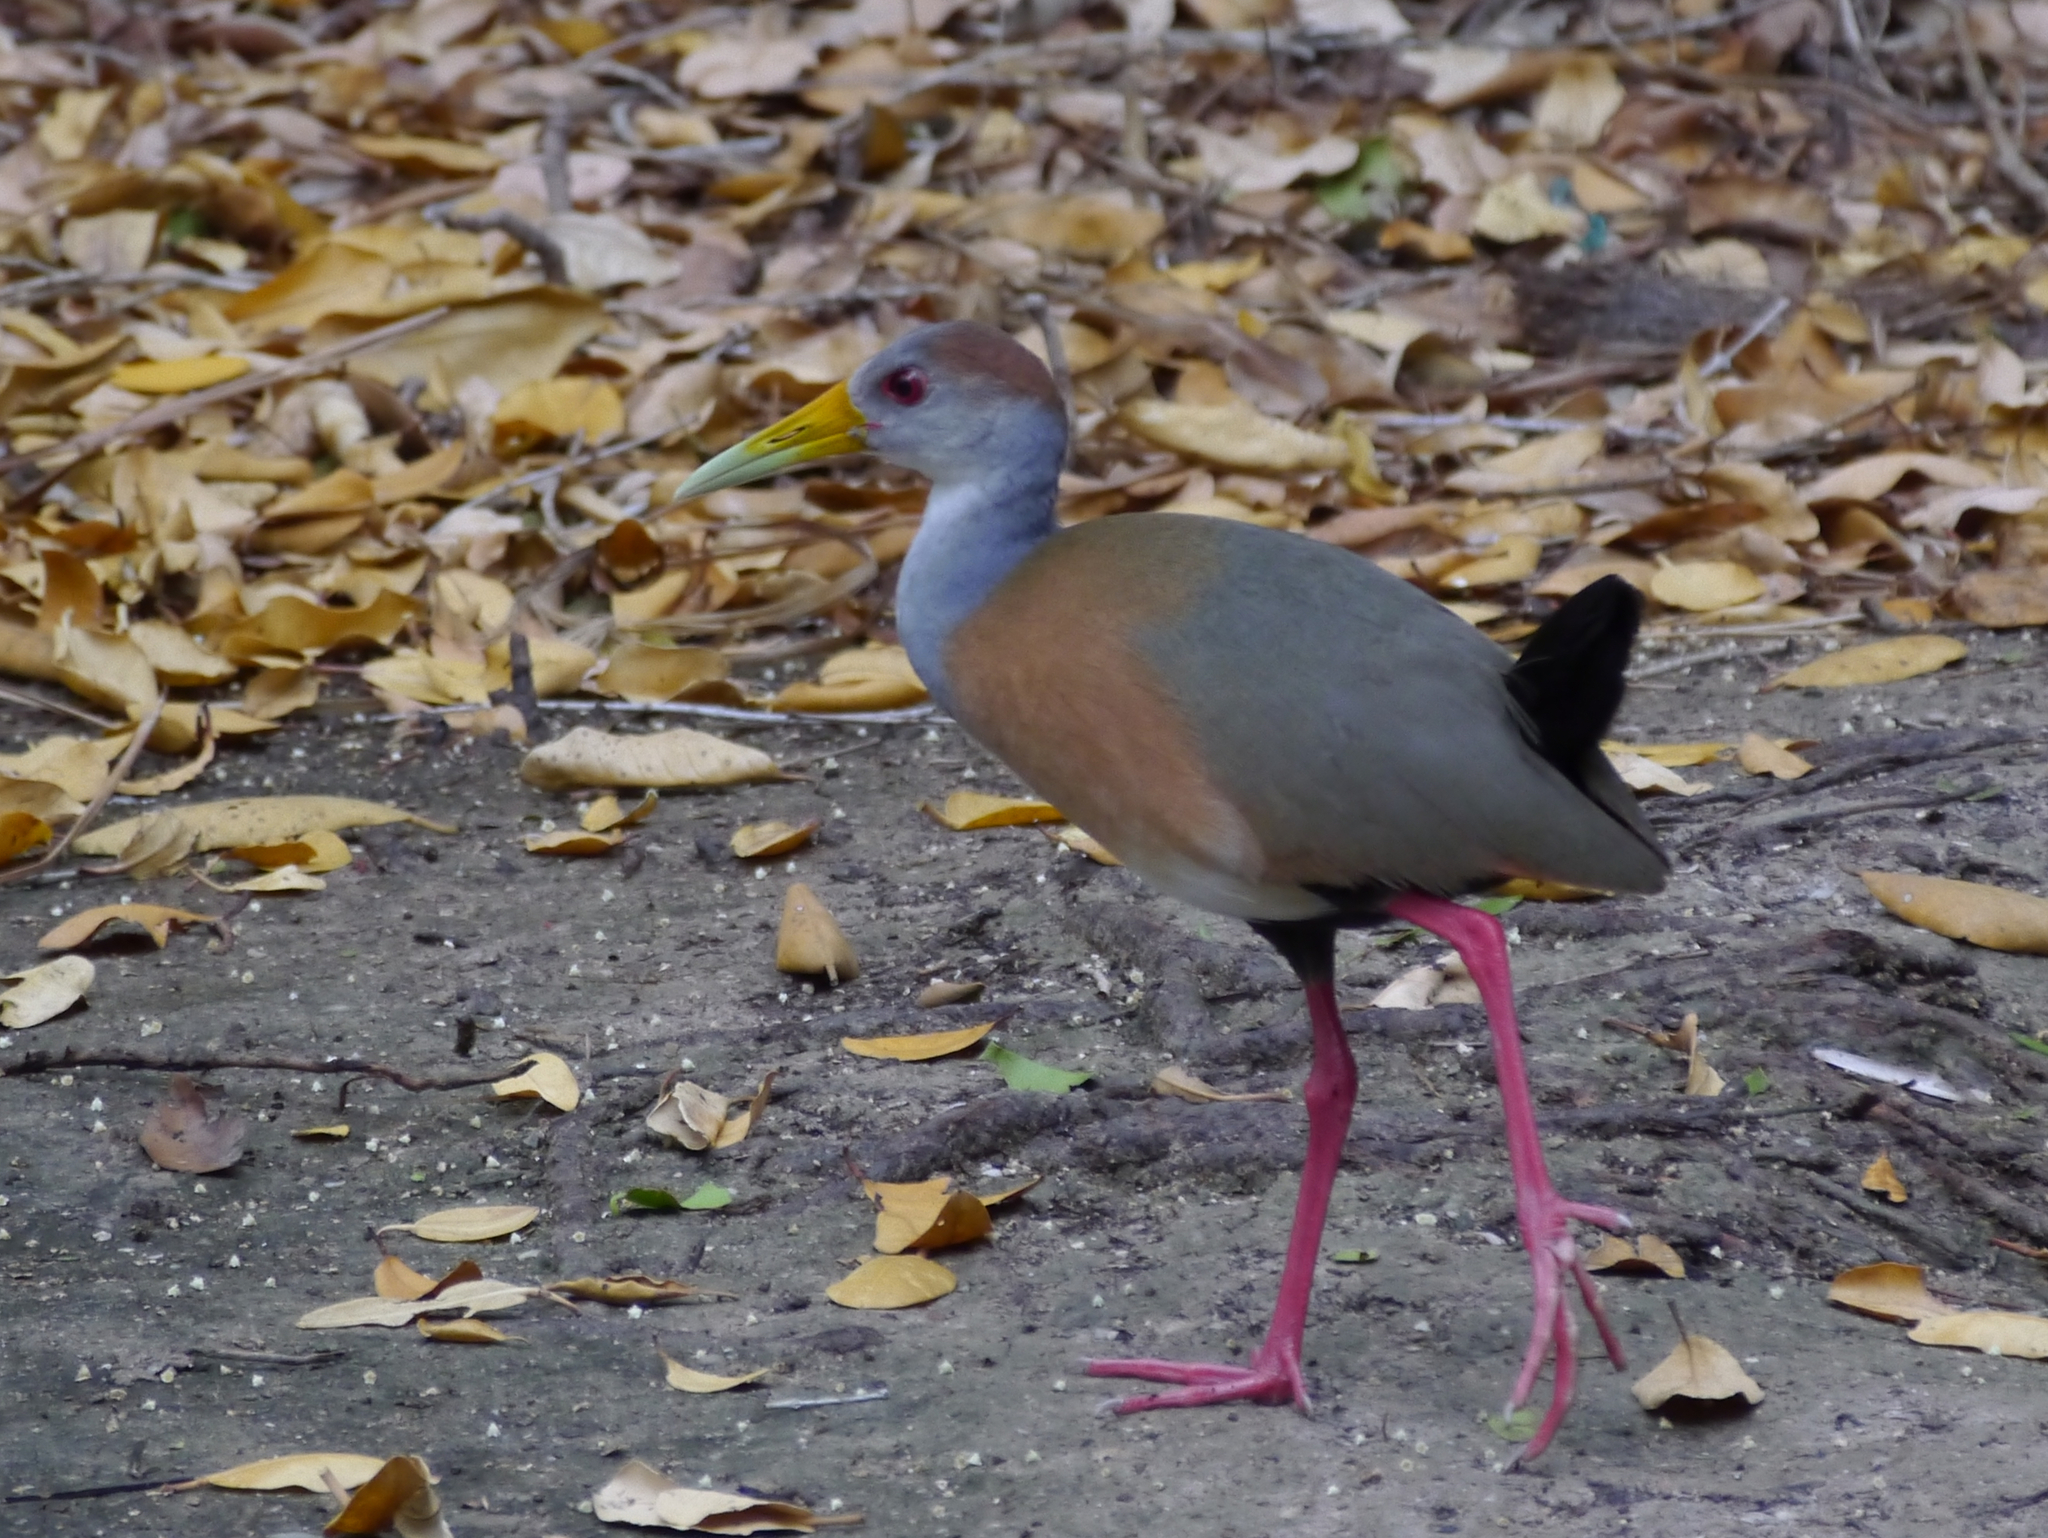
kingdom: Animalia
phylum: Chordata
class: Aves
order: Gruiformes
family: Rallidae
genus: Aramides
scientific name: Aramides albiventris
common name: Russet-naped wood-rail
